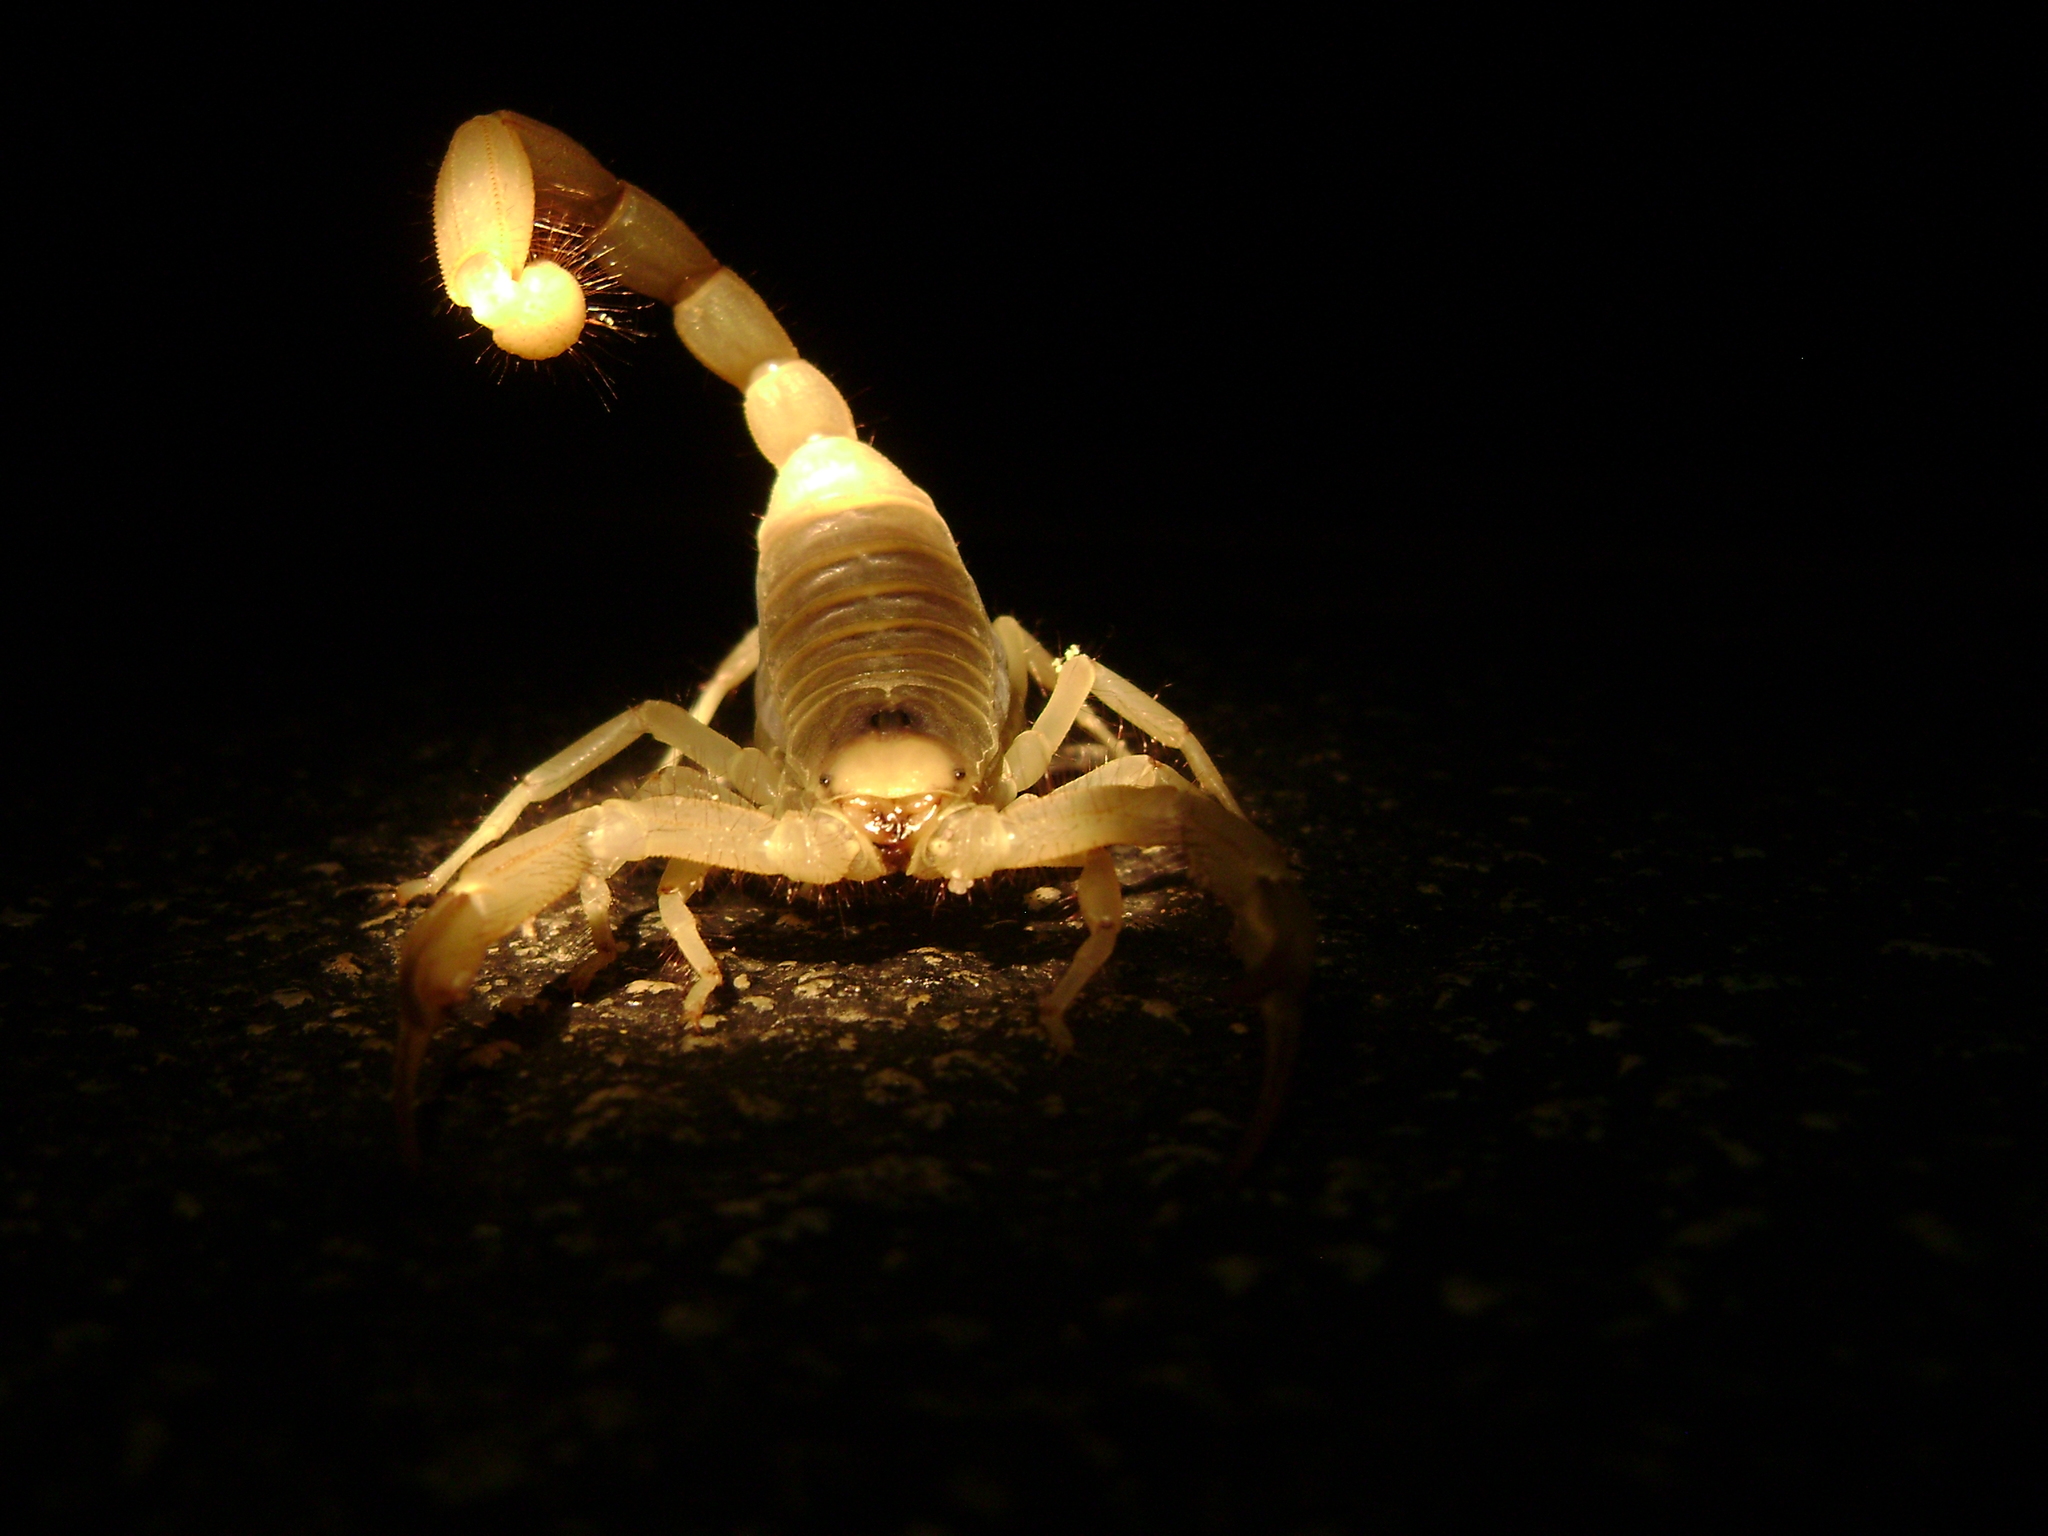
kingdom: Animalia
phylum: Arthropoda
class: Arachnida
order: Scorpiones
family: Hadruridae
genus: Hadrurus
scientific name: Hadrurus arizonensis
